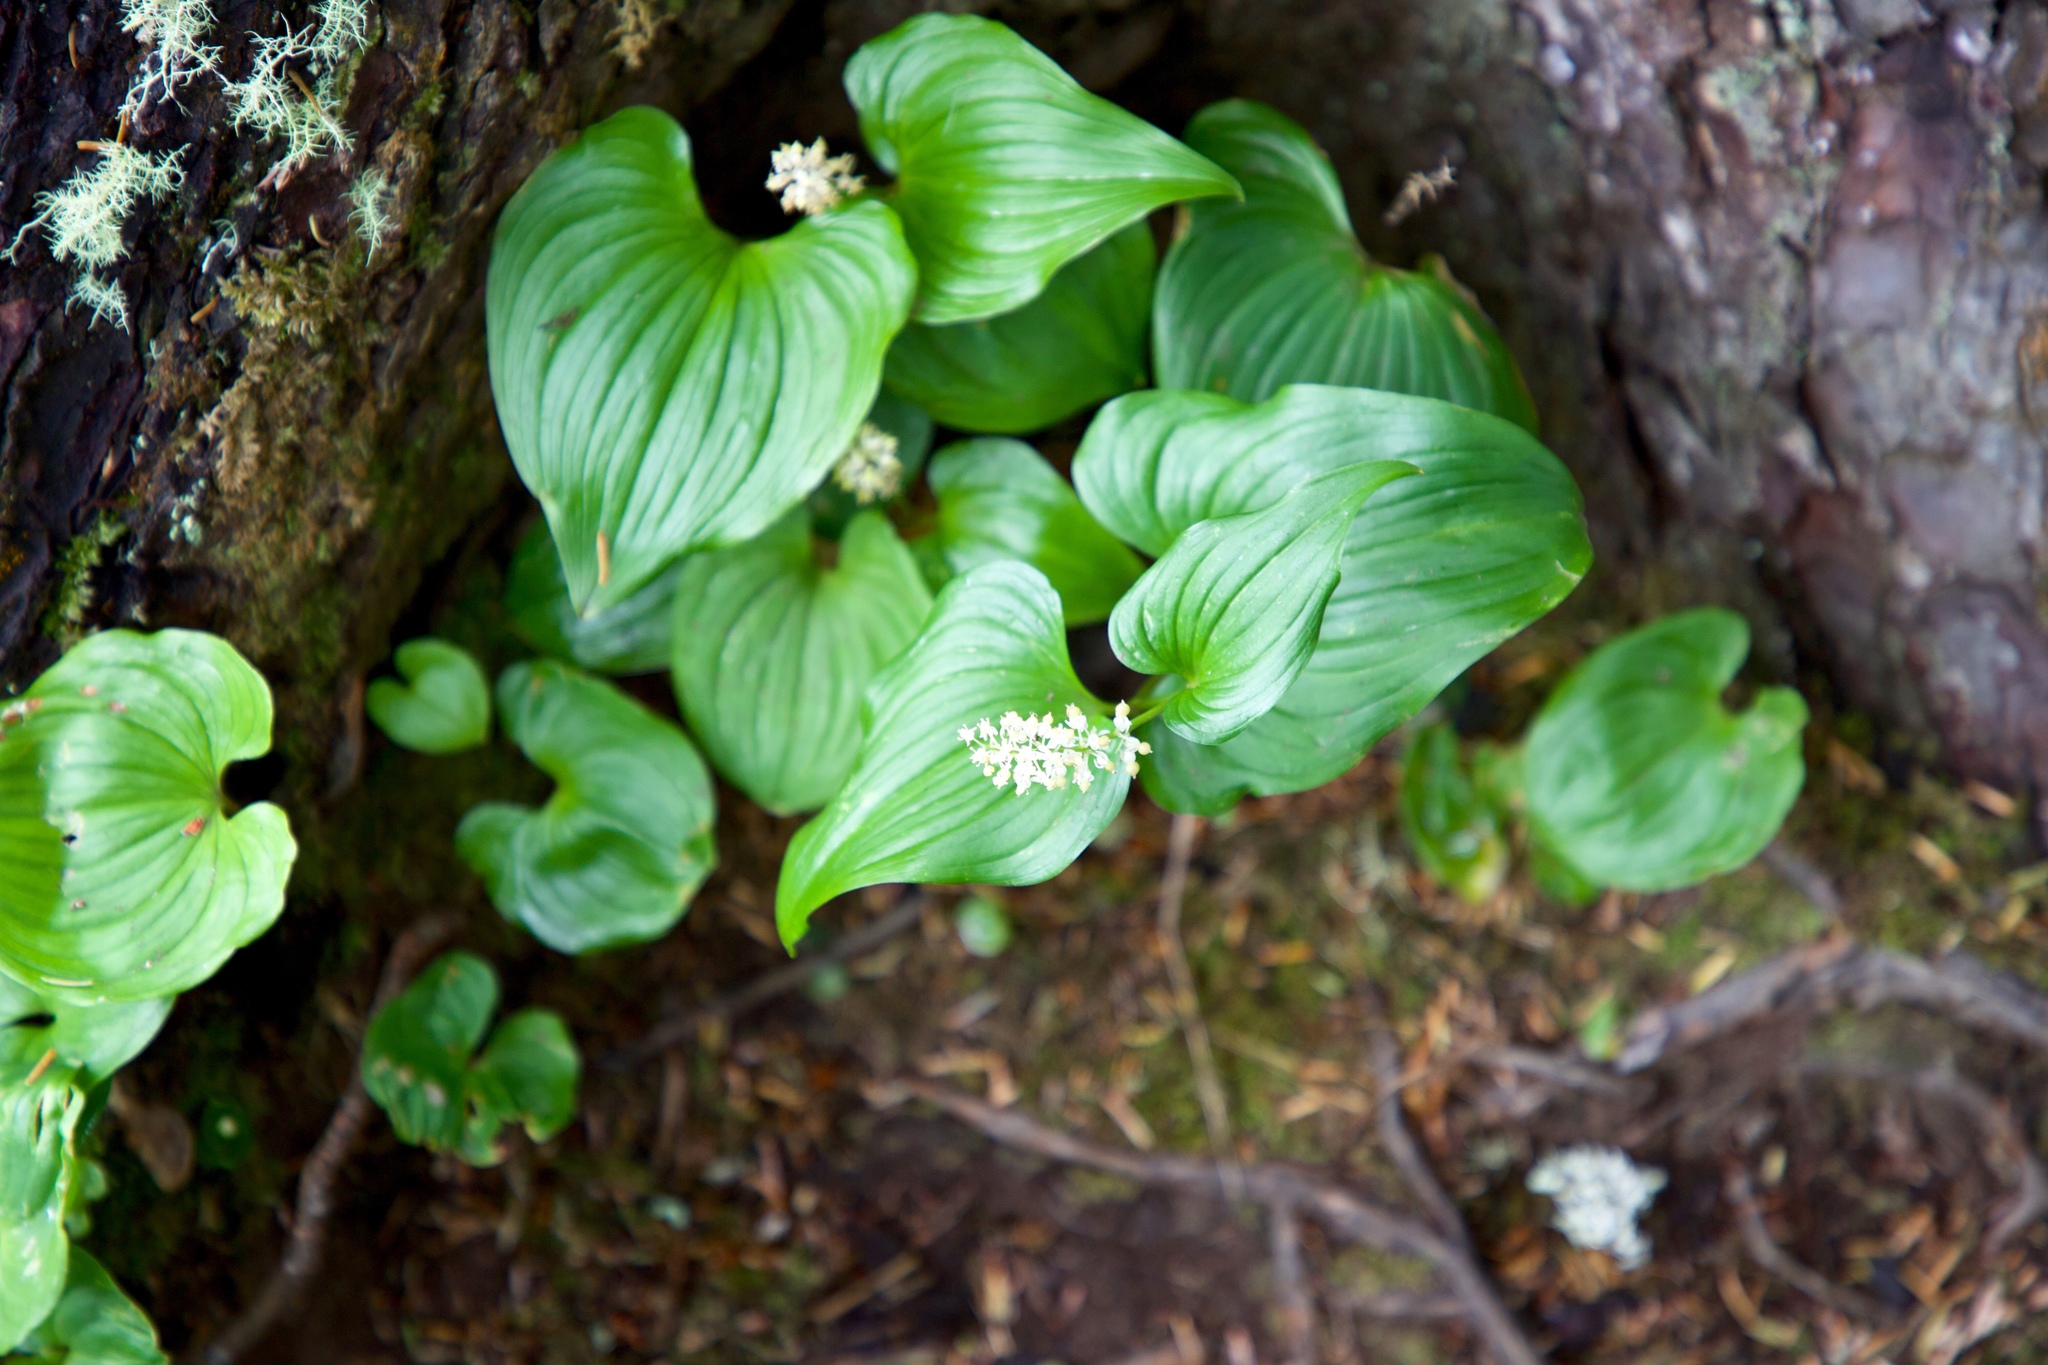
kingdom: Plantae
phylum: Tracheophyta
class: Liliopsida
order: Asparagales
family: Asparagaceae
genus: Maianthemum
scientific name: Maianthemum dilatatum
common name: False lily-of-the-valley
